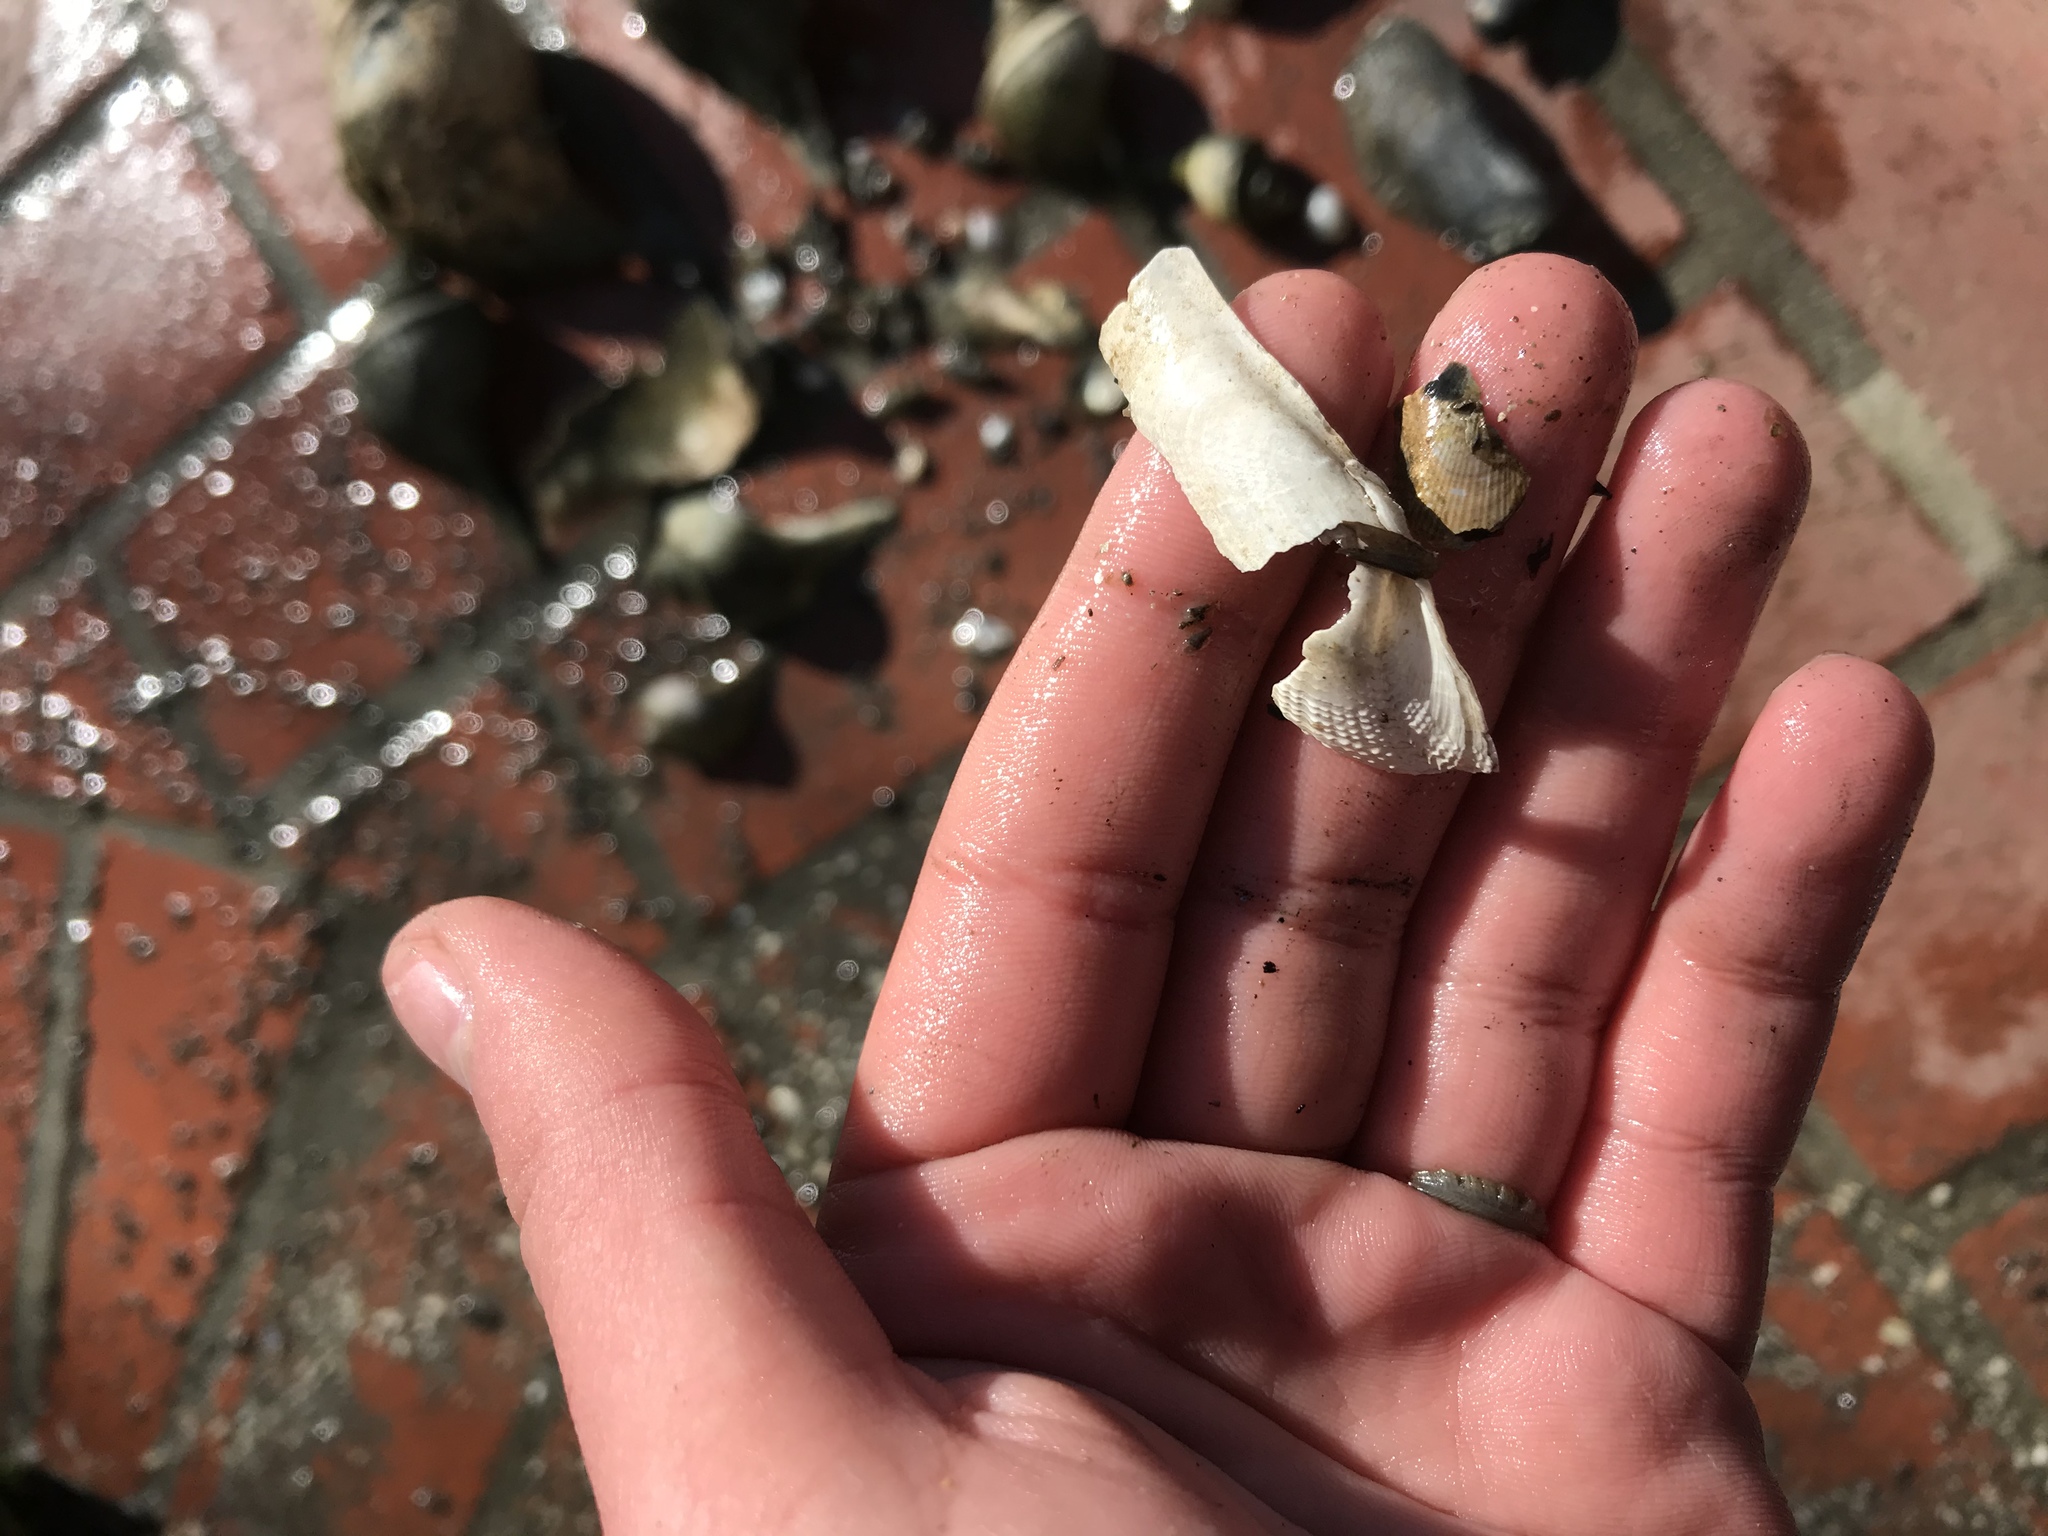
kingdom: Animalia
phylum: Mollusca
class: Bivalvia
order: Myida
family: Pholadidae
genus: Barnea
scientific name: Barnea subtruncata
